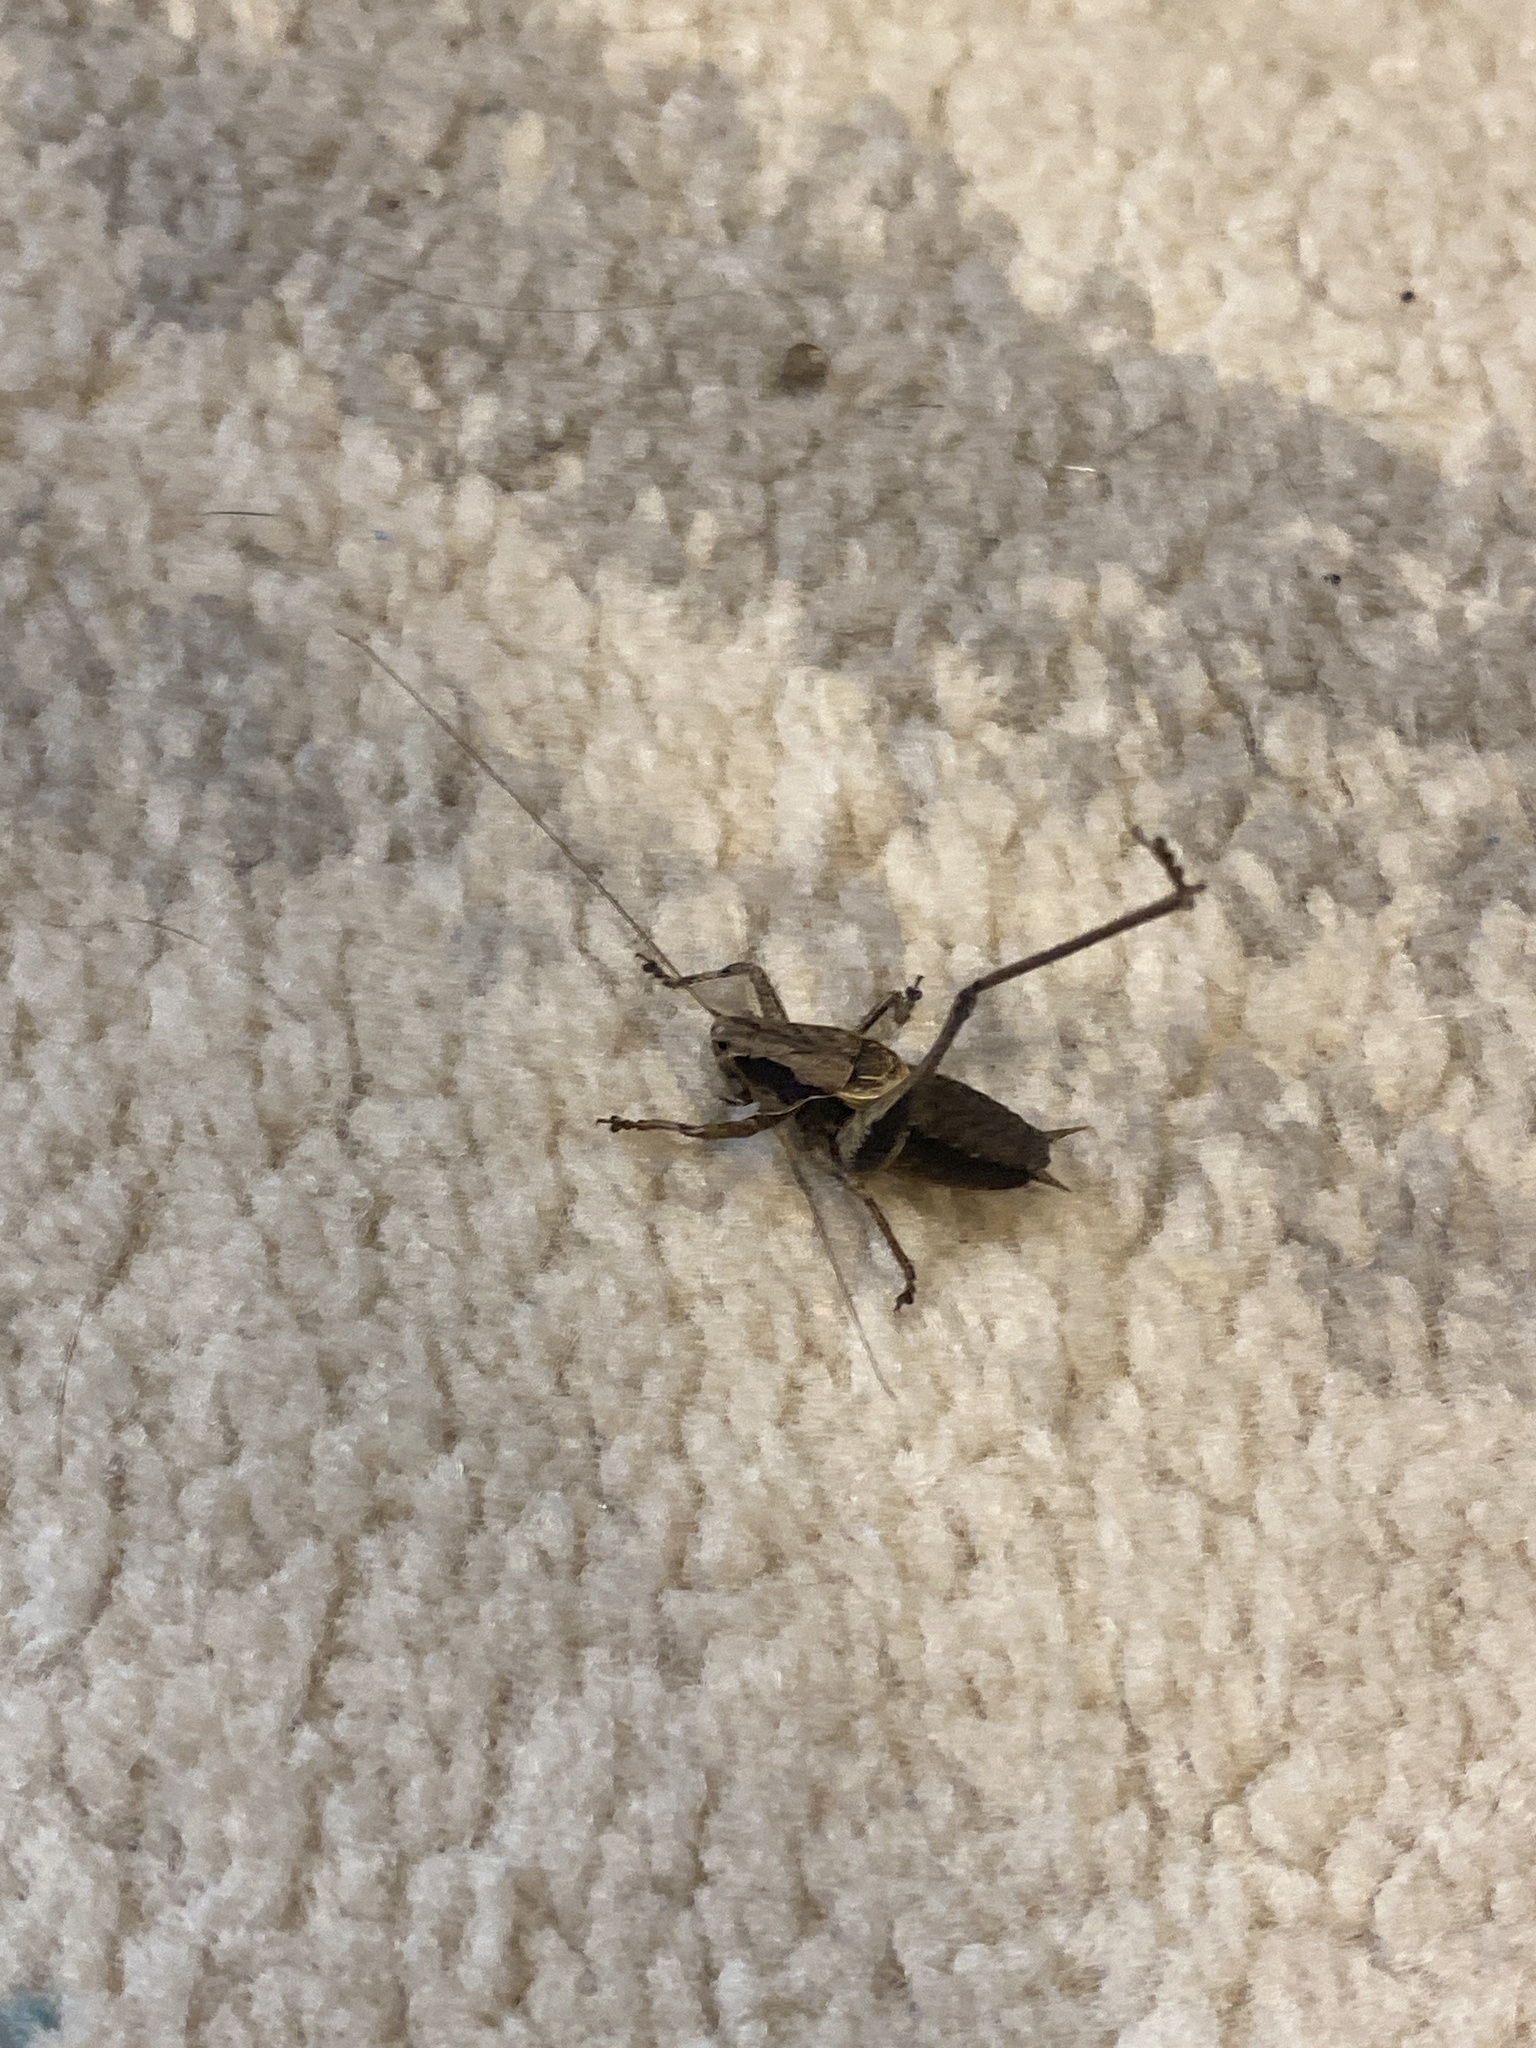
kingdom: Animalia
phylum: Arthropoda
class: Insecta
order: Orthoptera
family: Tettigoniidae
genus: Pholidoptera
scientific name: Pholidoptera griseoaptera
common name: Dark bush-cricket
